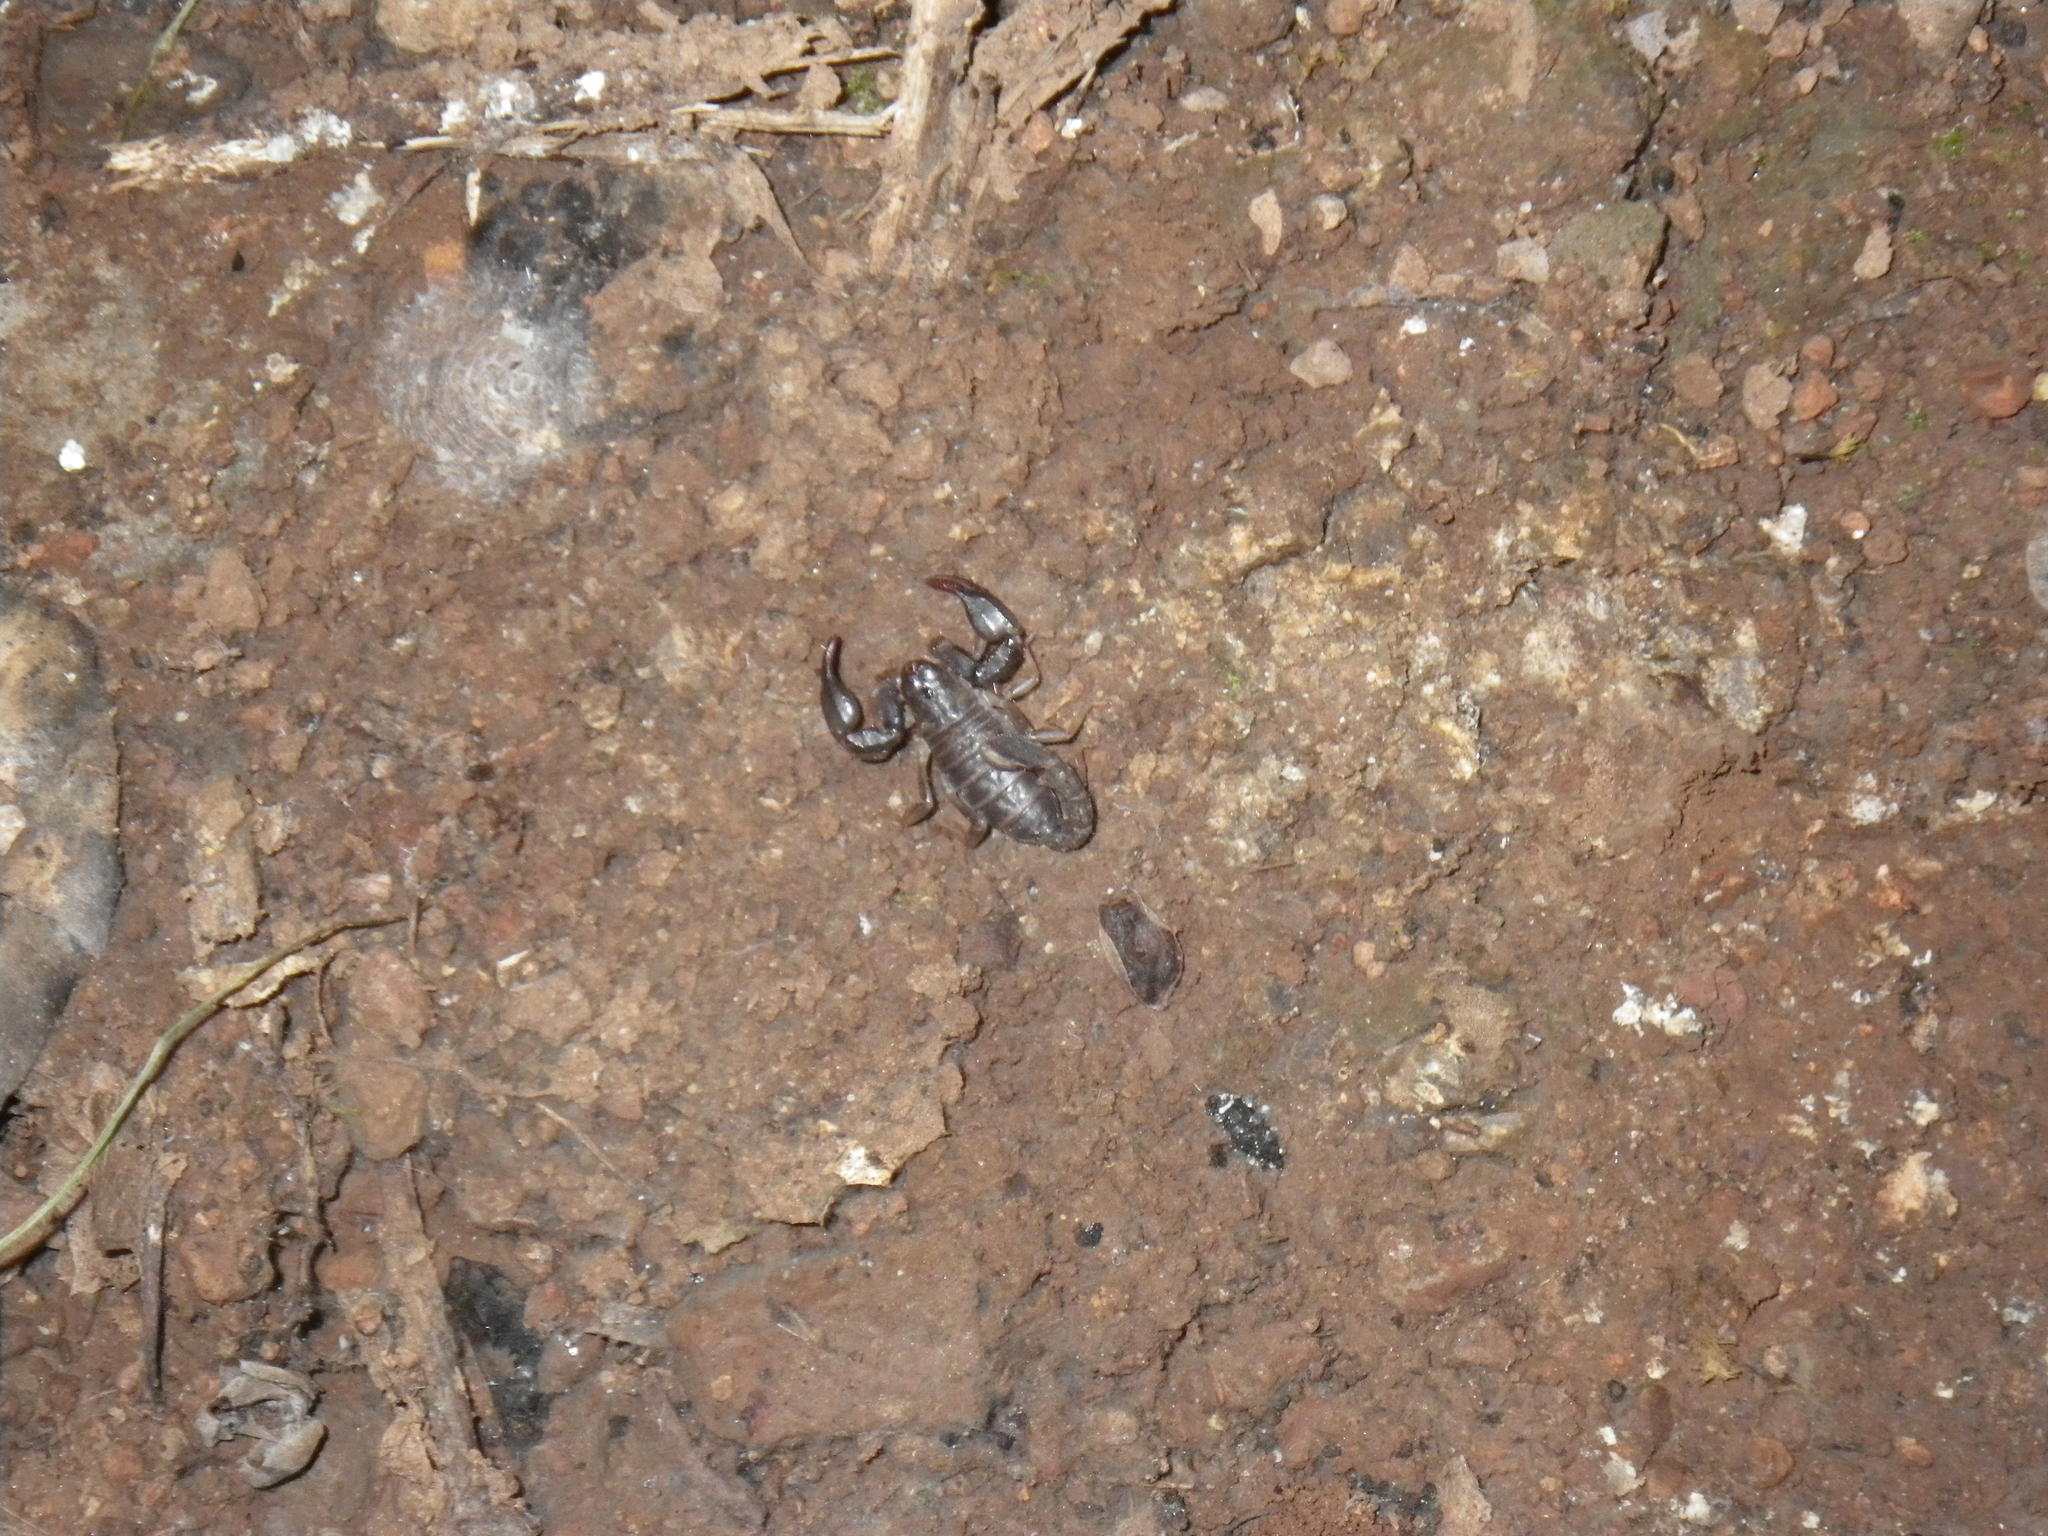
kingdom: Animalia
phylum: Arthropoda
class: Arachnida
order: Scorpiones
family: Chactidae
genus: Uroctonus
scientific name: Uroctonus mordax
